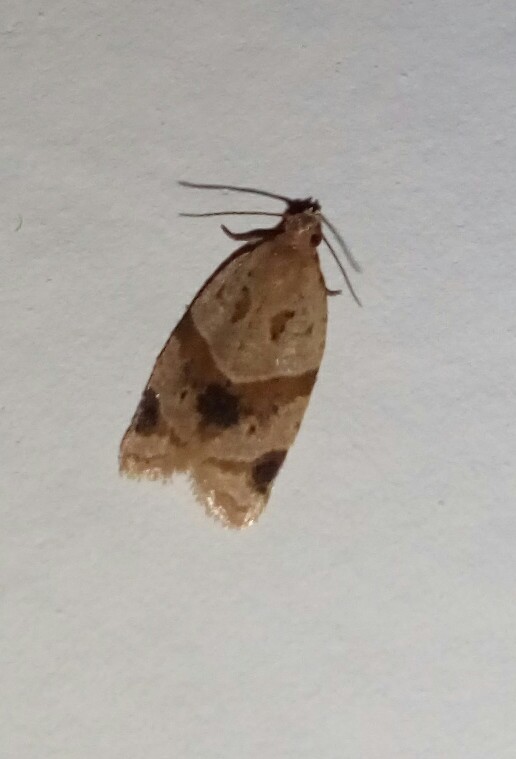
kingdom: Animalia
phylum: Arthropoda
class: Insecta
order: Lepidoptera
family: Tortricidae
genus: Clepsis
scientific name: Clepsis peritana
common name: Garden tortrix
